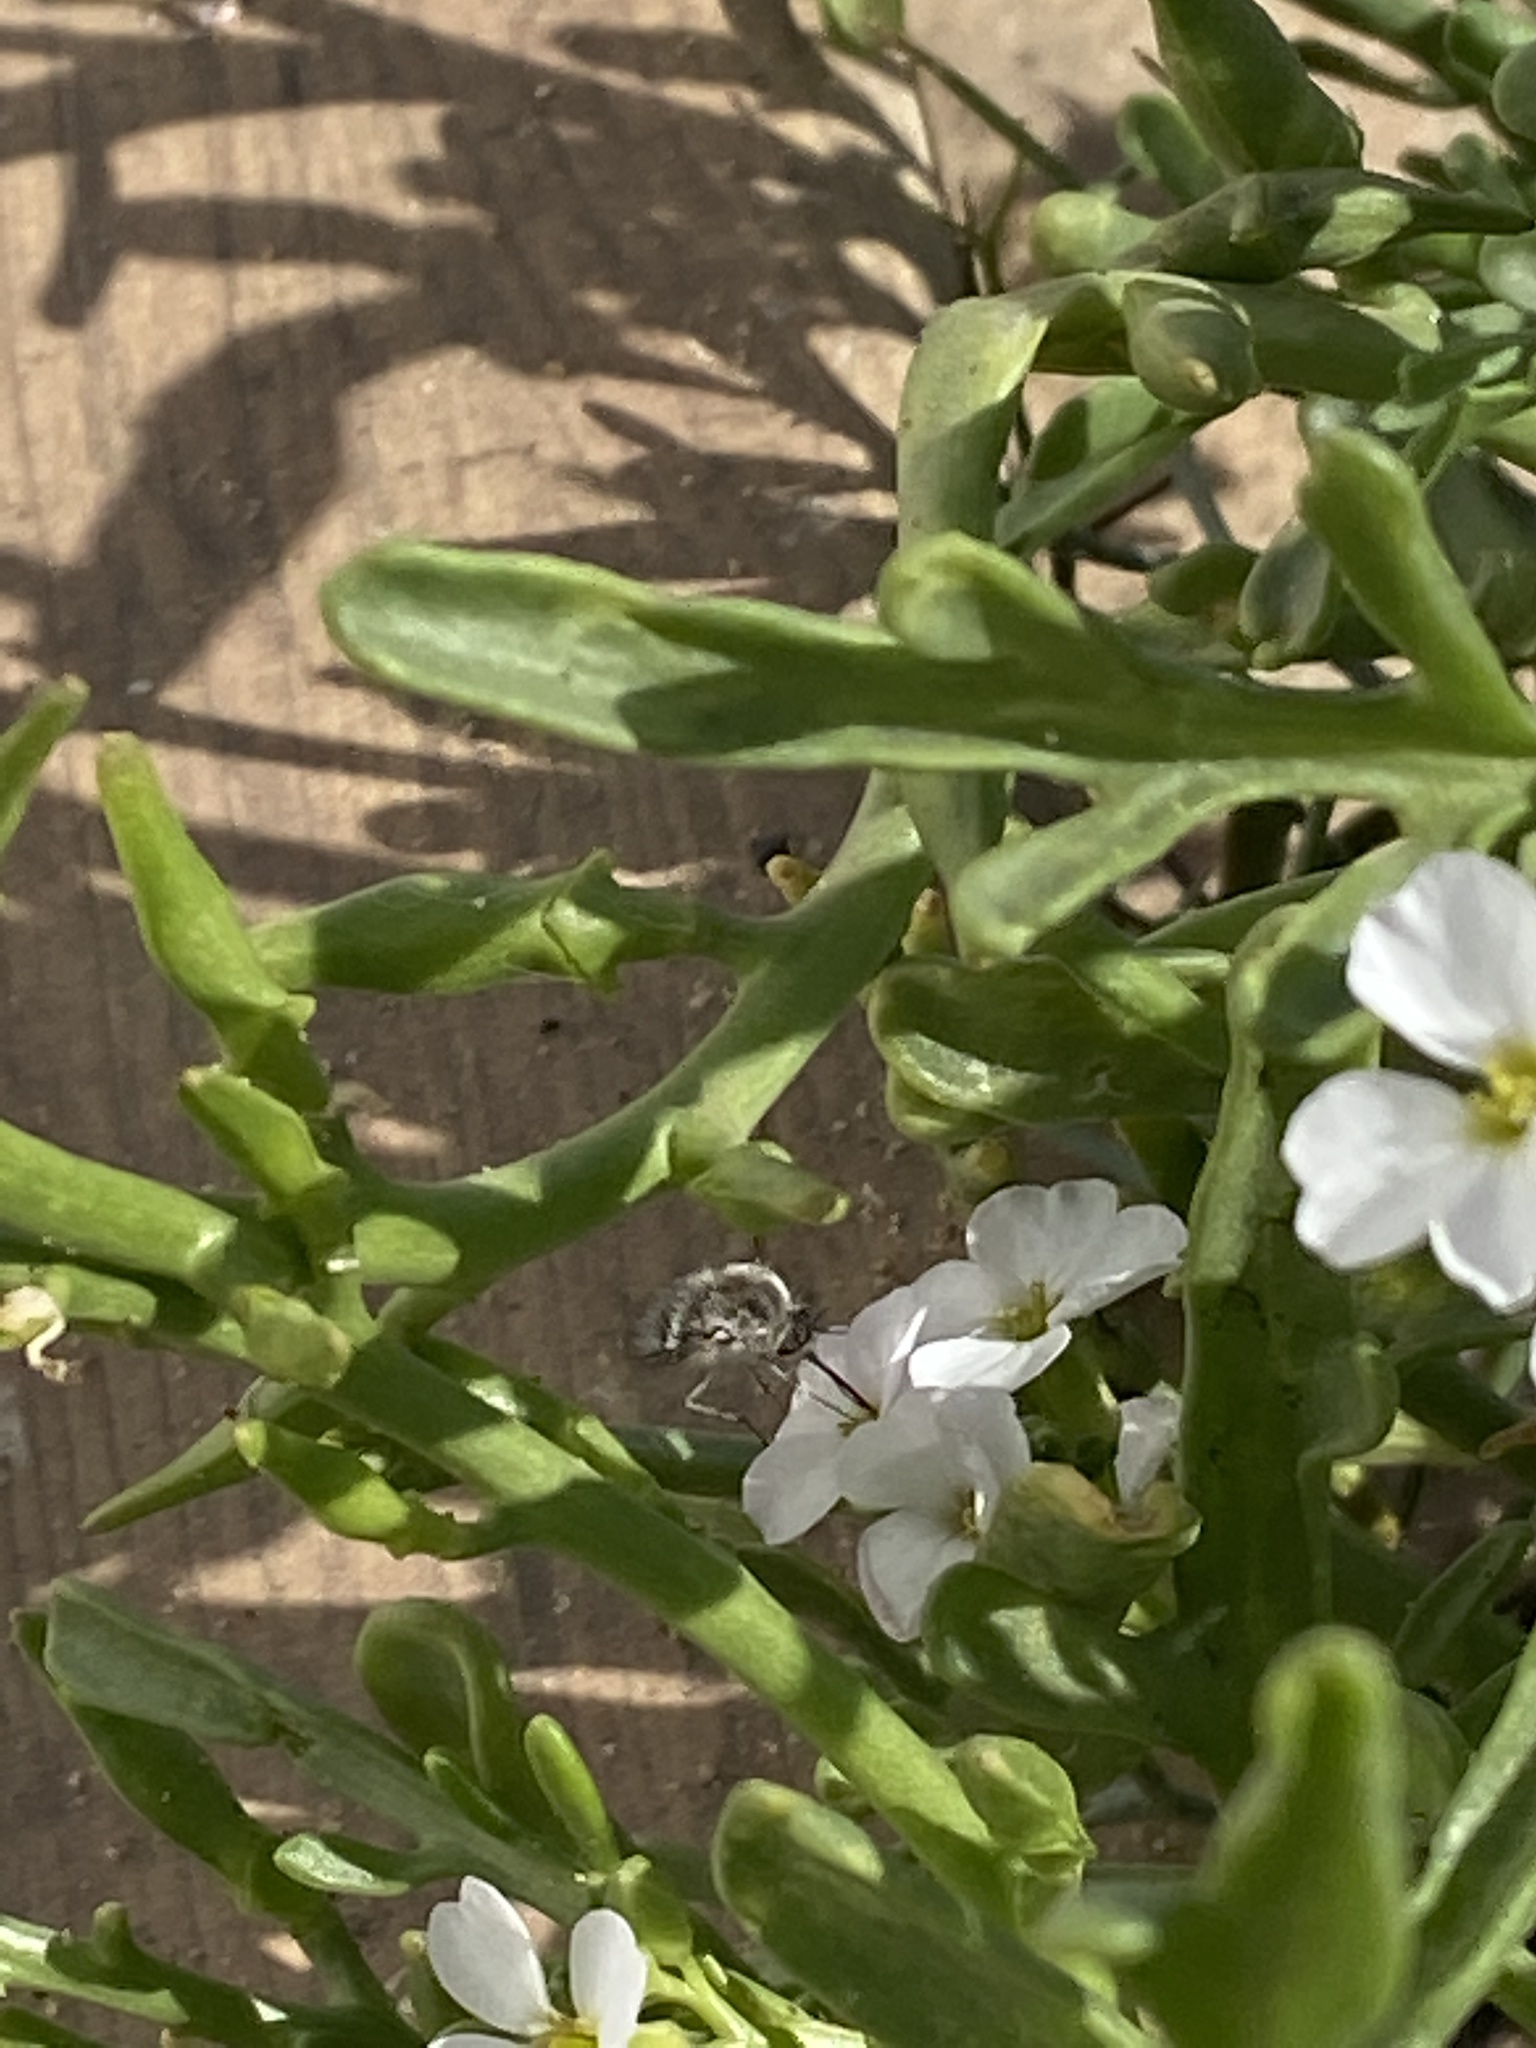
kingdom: Animalia
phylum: Arthropoda
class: Insecta
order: Diptera
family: Bombyliidae
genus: Dischistus
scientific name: Dischistus atlanticus
